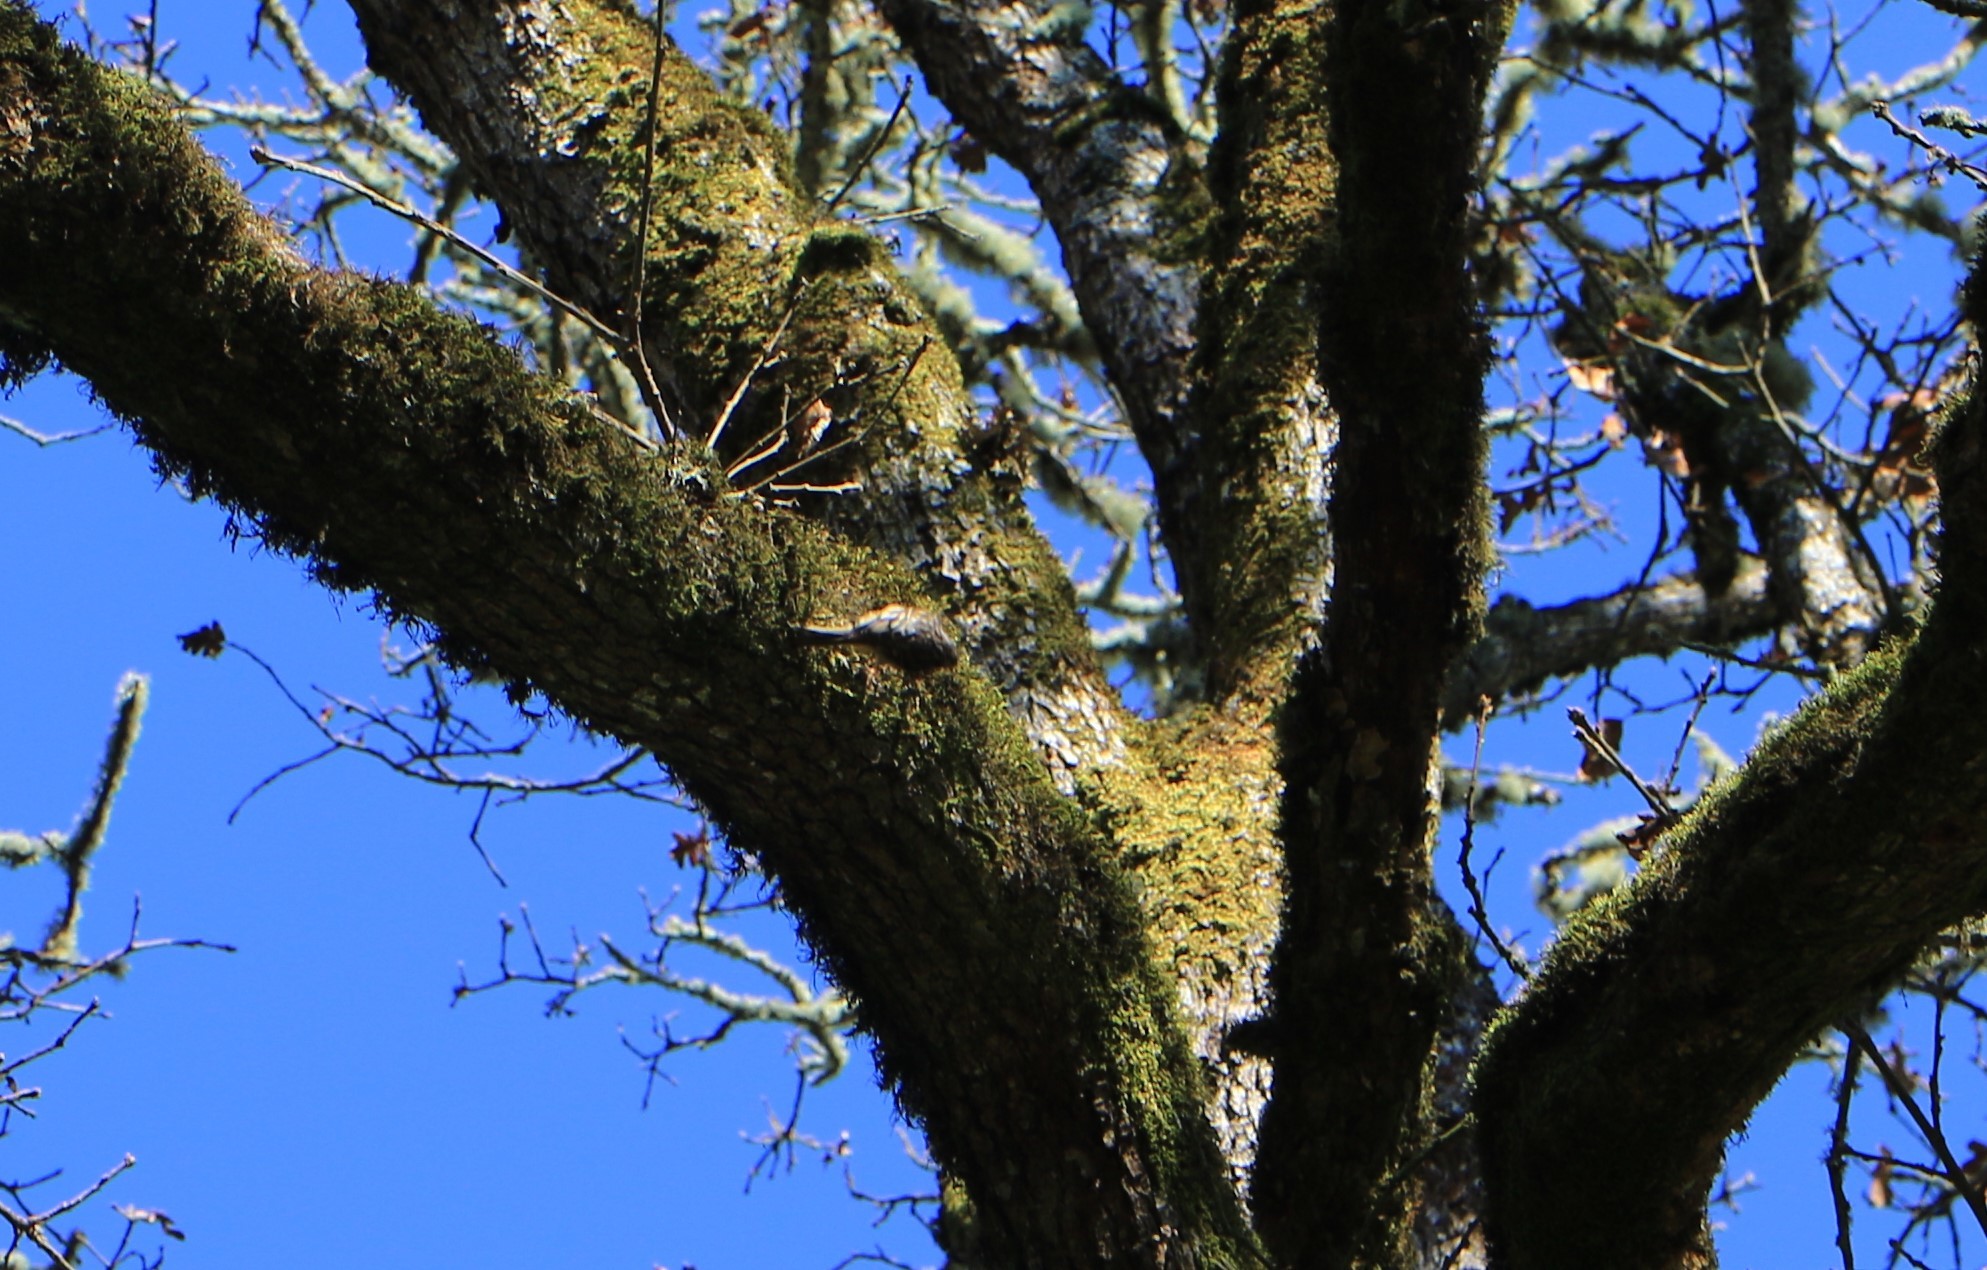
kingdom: Animalia
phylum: Chordata
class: Aves
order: Passeriformes
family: Certhiidae
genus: Certhia
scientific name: Certhia americana
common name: Brown creeper
